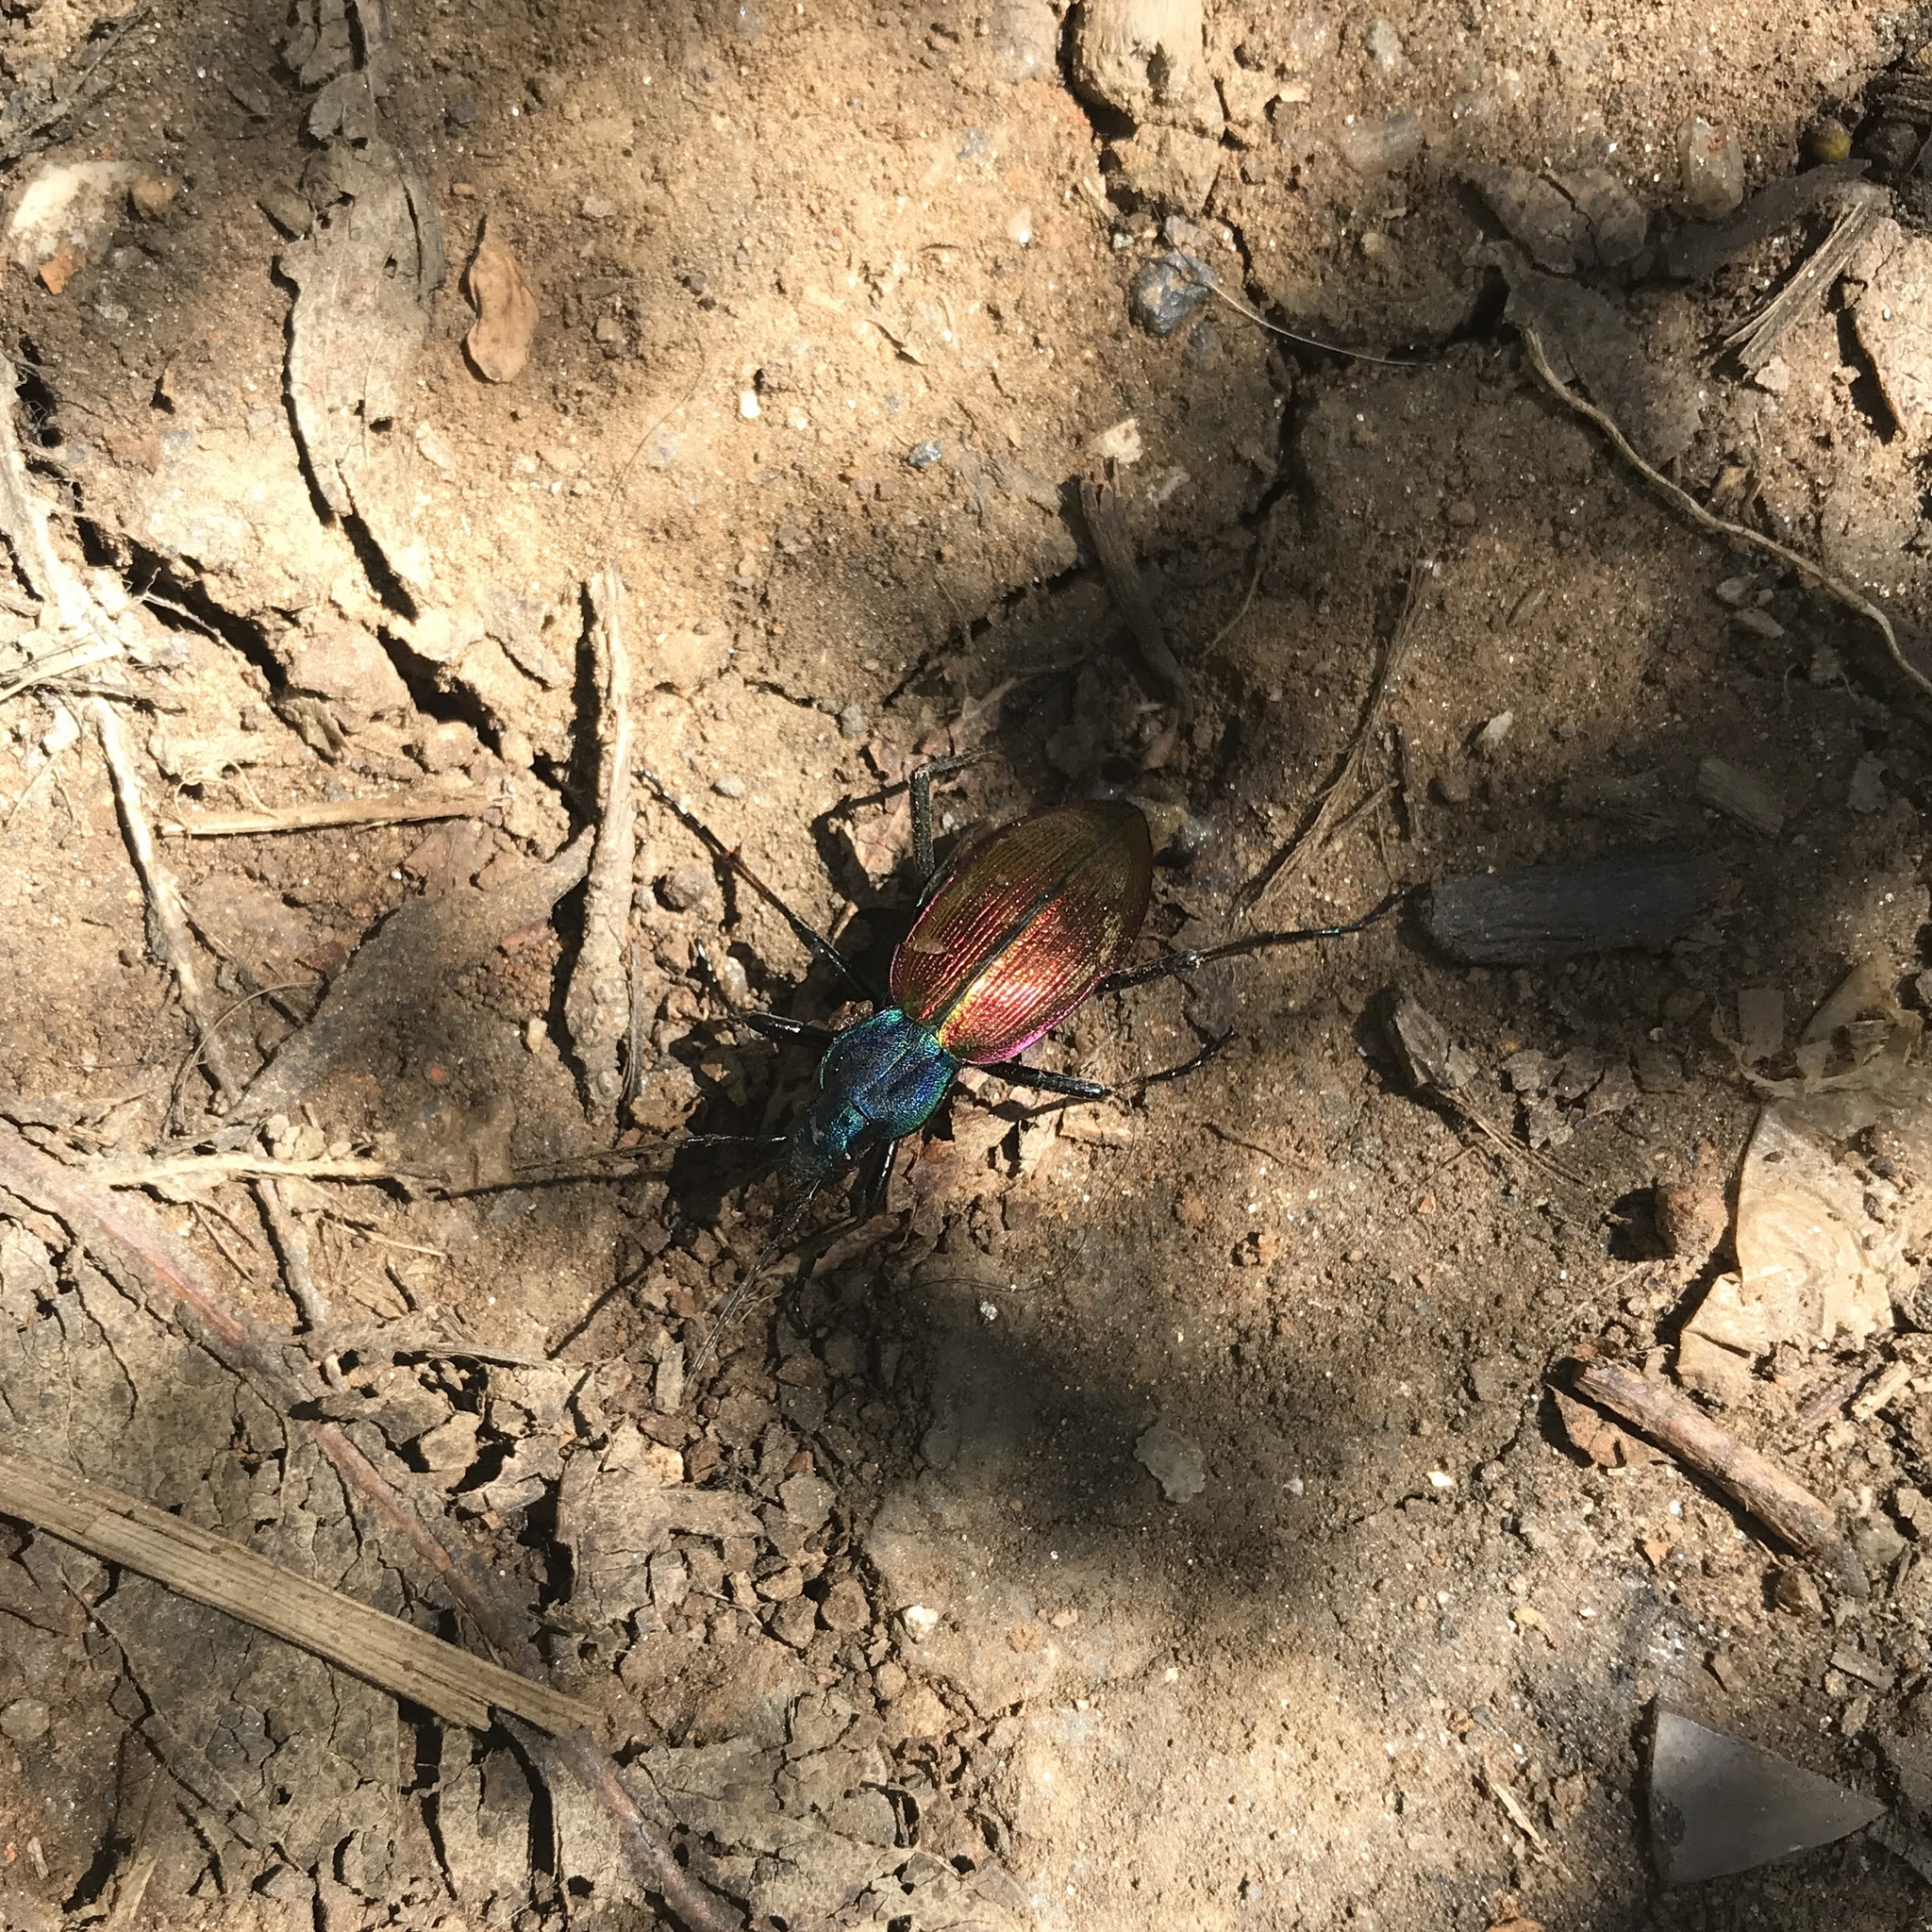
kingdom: Animalia
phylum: Arthropoda
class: Insecta
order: Coleoptera
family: Carabidae
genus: Ceroglossus
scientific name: Ceroglossus chilensis
